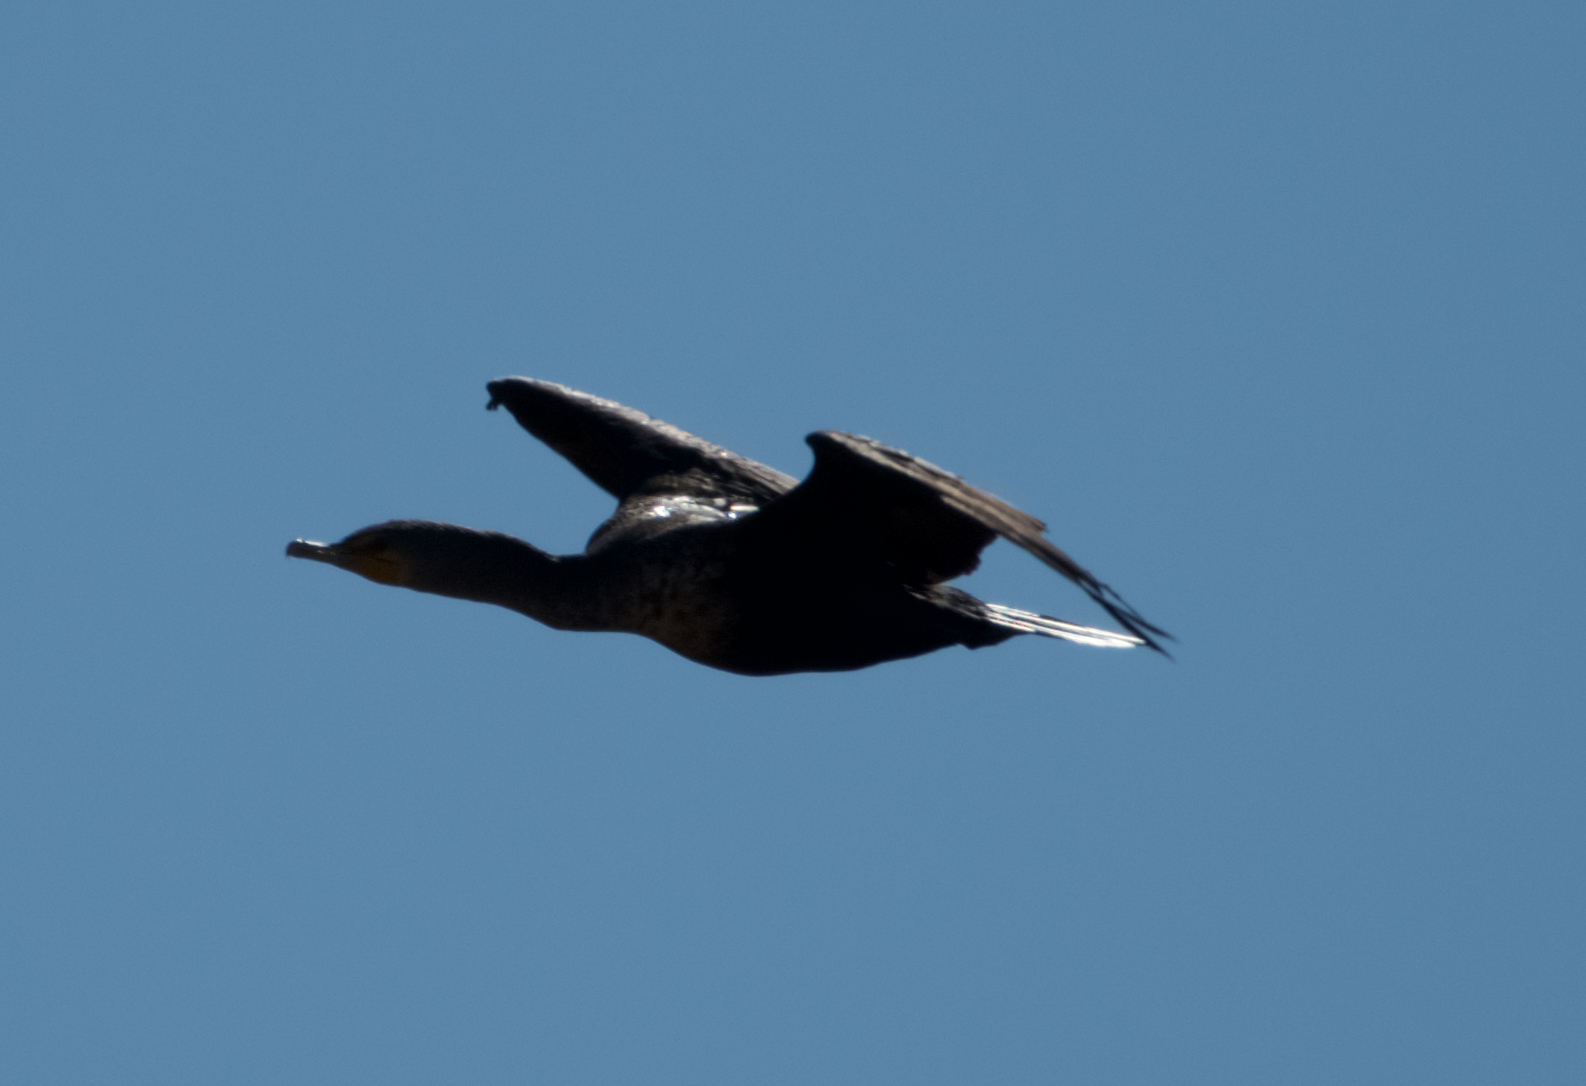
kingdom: Animalia
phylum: Chordata
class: Aves
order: Suliformes
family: Phalacrocoracidae
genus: Phalacrocorax
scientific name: Phalacrocorax auritus
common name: Double-crested cormorant
